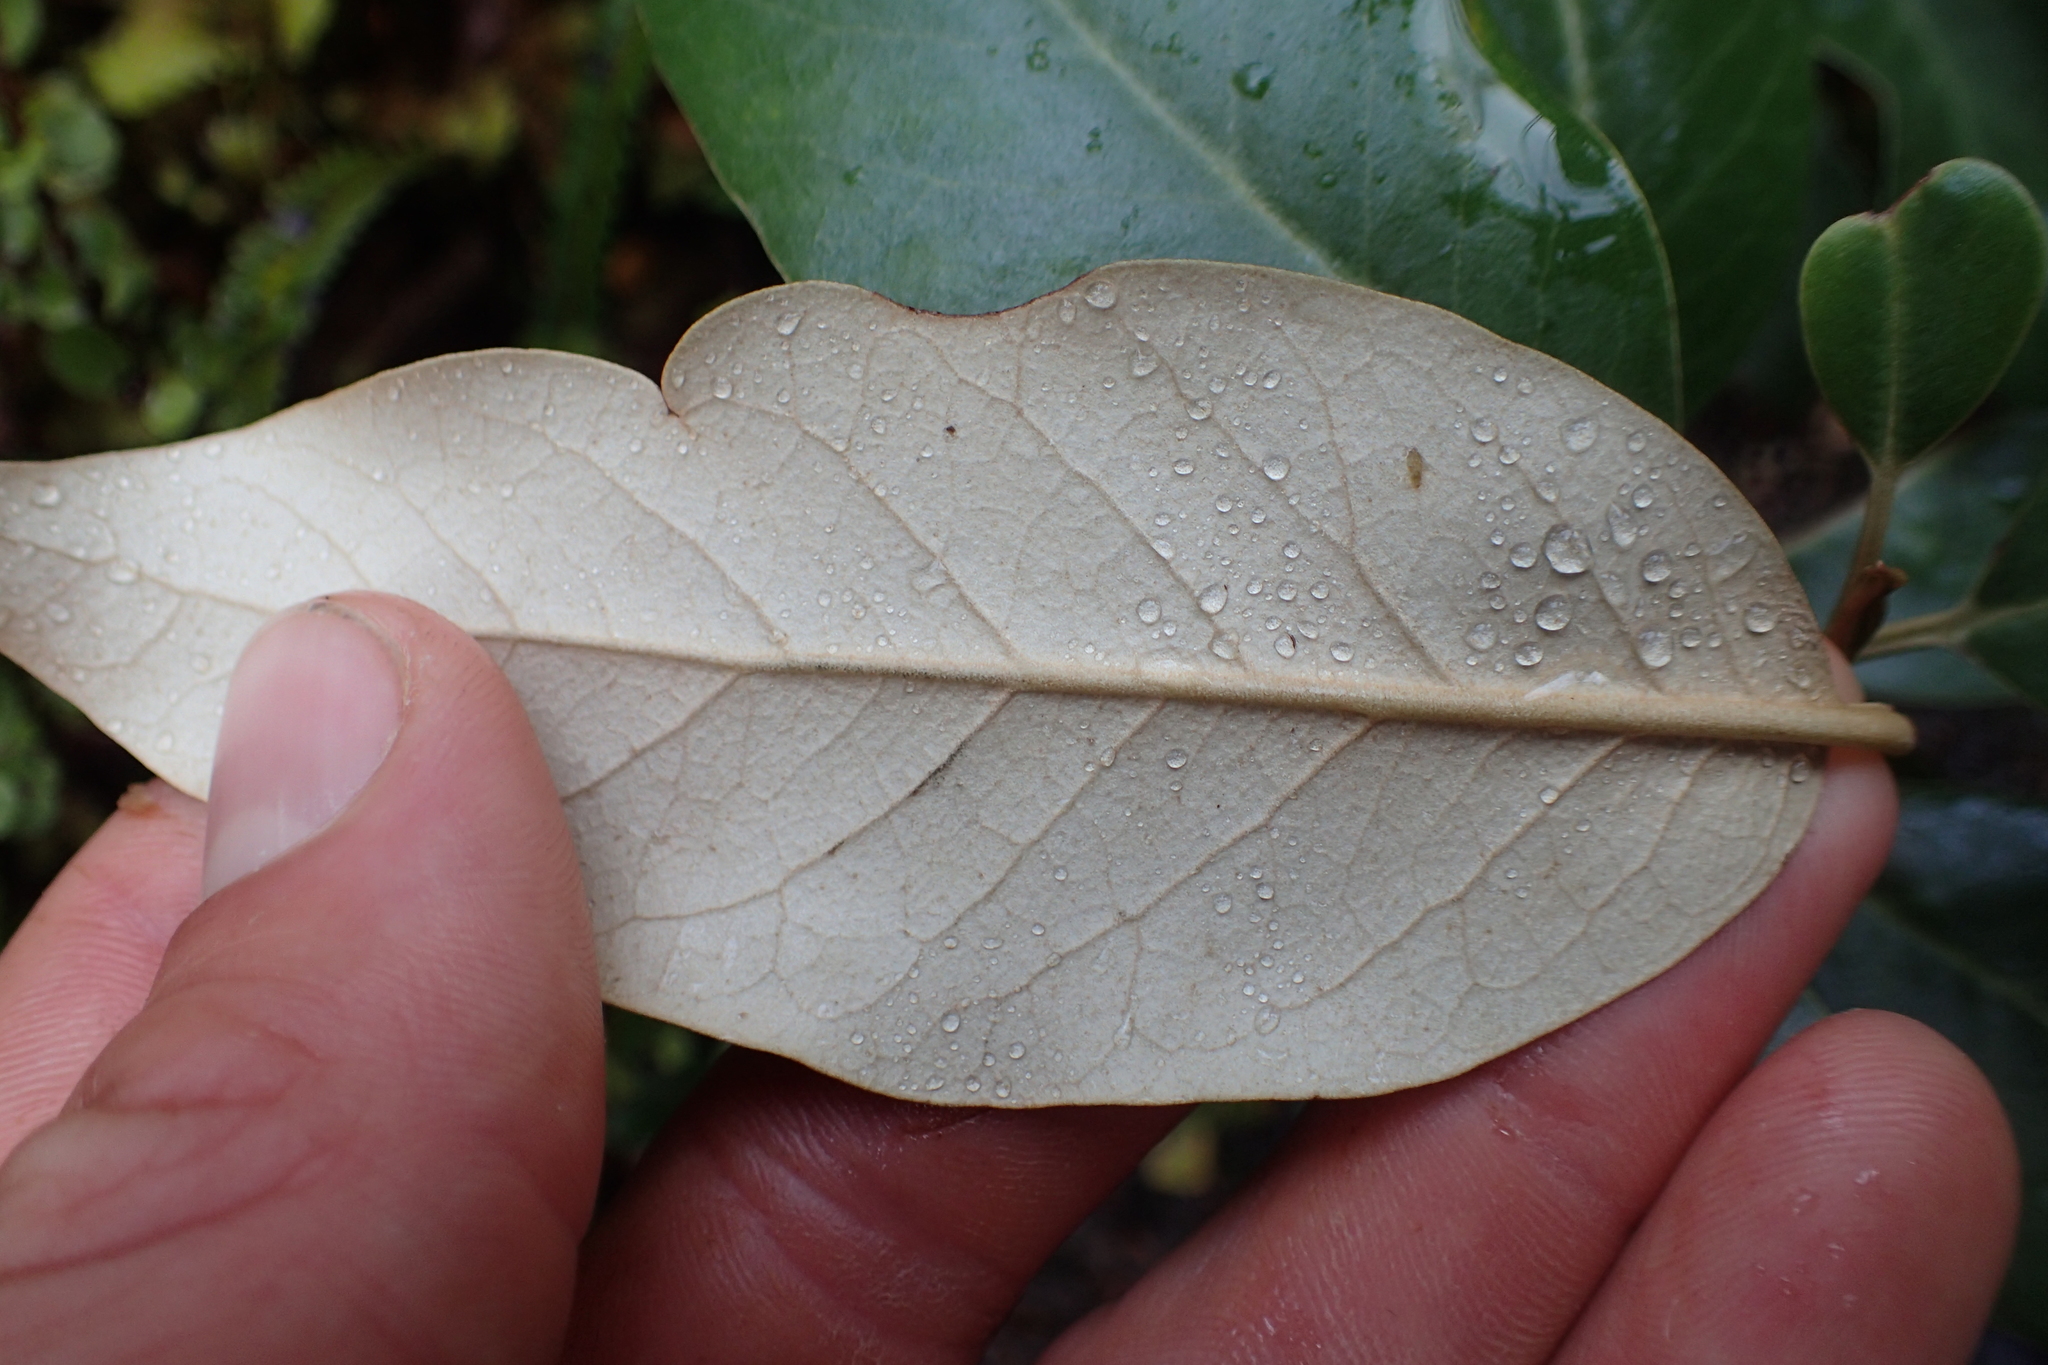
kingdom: Plantae
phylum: Tracheophyta
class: Magnoliopsida
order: Asterales
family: Asteraceae
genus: Olearia
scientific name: Olearia avicenniifolia
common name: Mangrove-leaf daisybush
